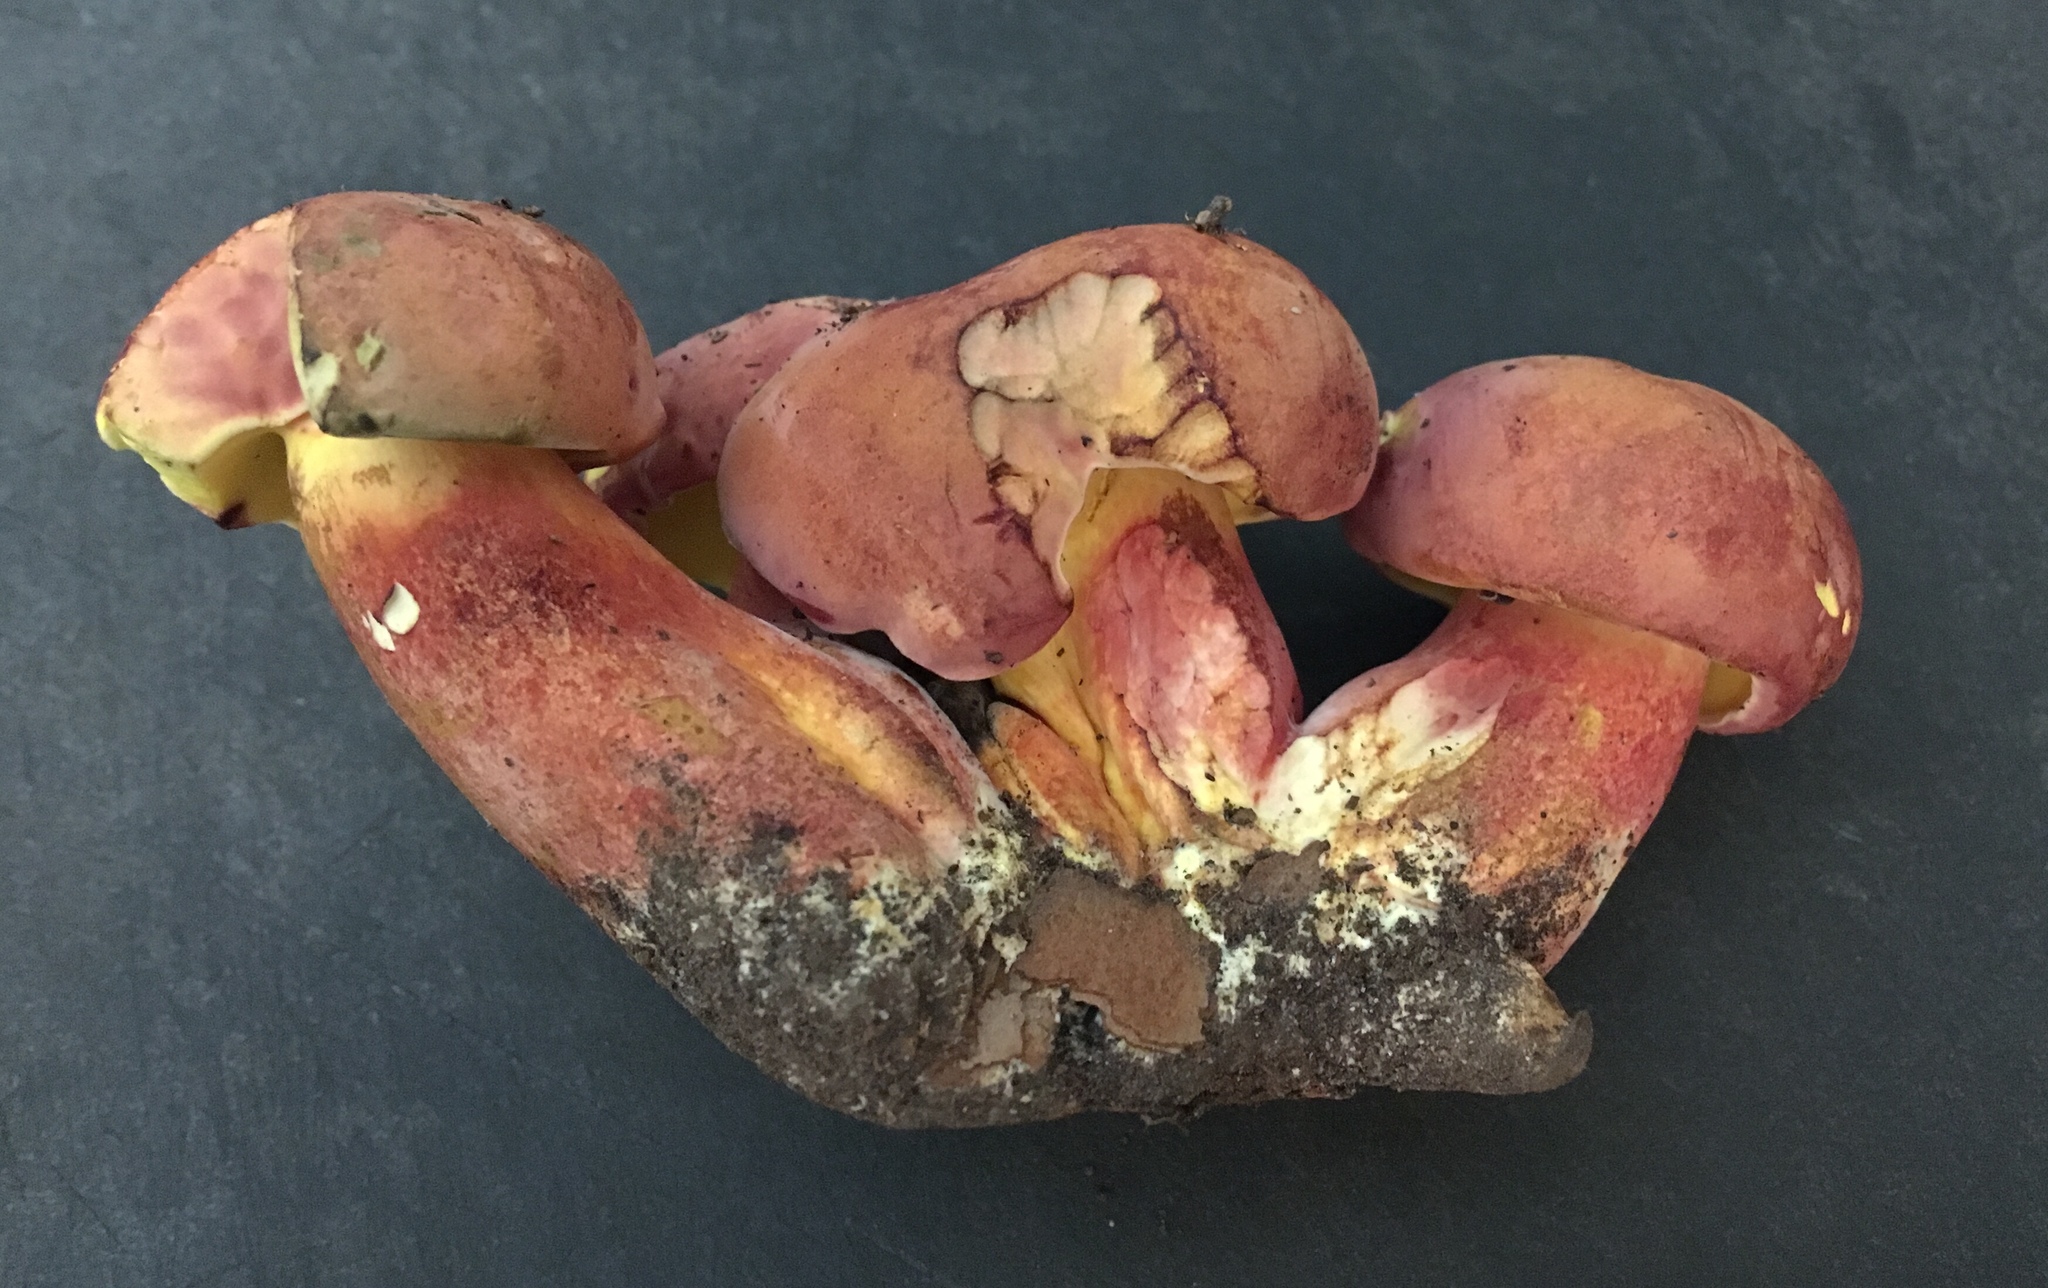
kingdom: Fungi
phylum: Basidiomycota
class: Agaricomycetes
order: Boletales
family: Boletaceae
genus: Baorangia
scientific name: Baorangia bicolor
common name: Two-colored bolete
